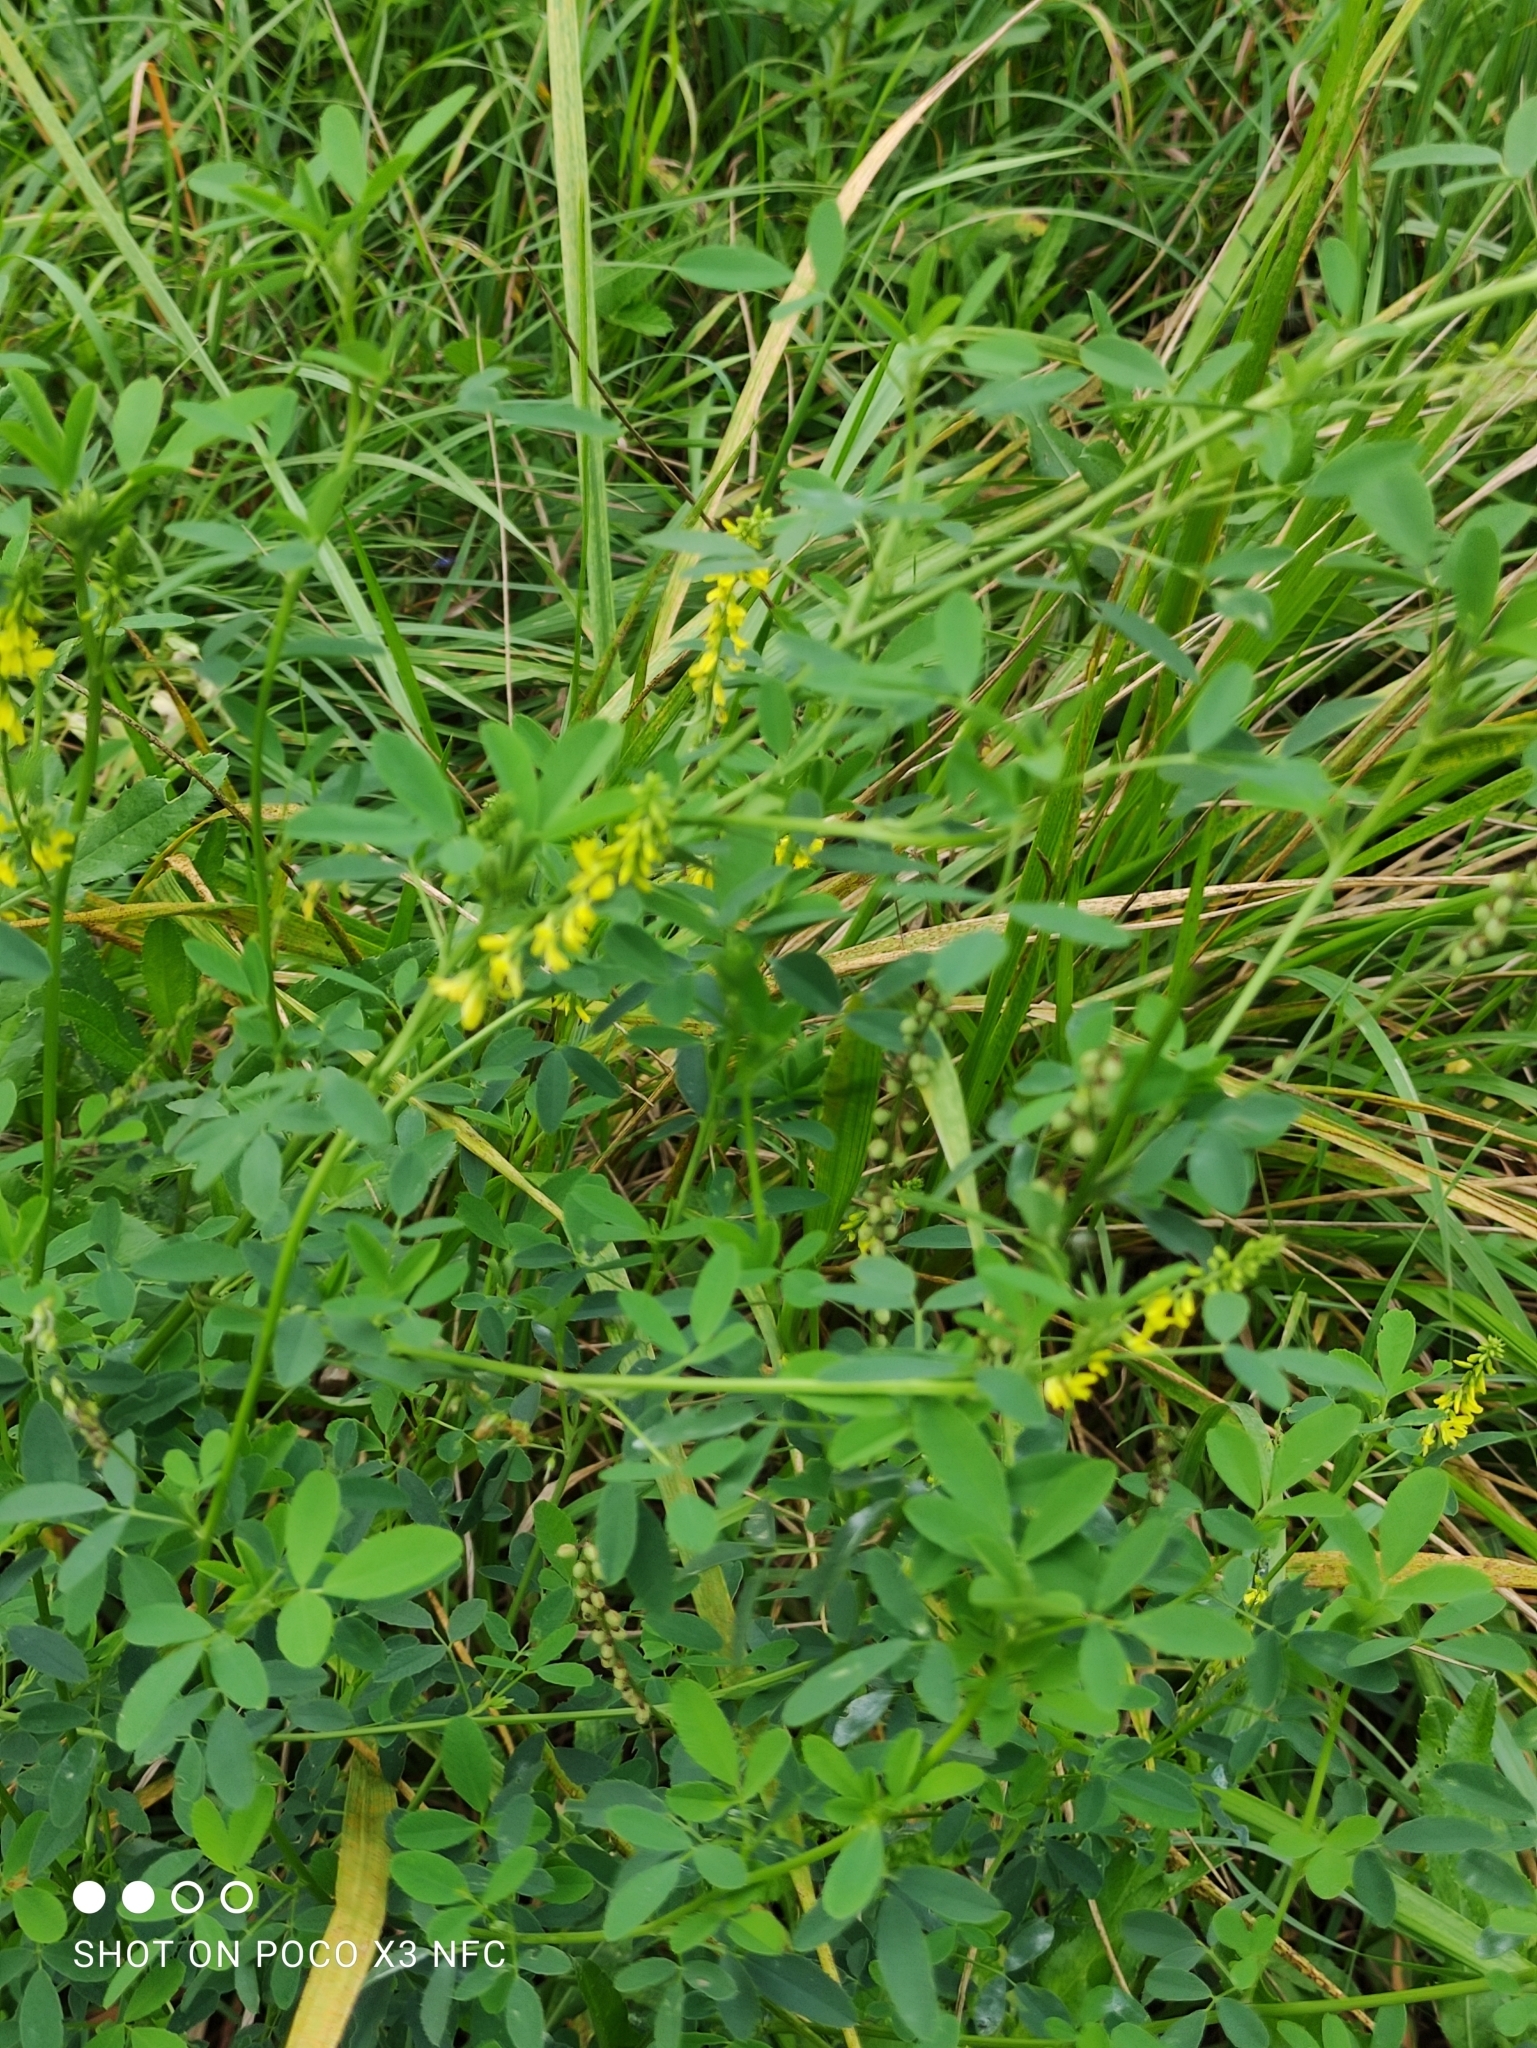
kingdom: Plantae
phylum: Tracheophyta
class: Magnoliopsida
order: Fabales
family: Fabaceae
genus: Melilotus
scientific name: Melilotus officinalis
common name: Sweetclover
